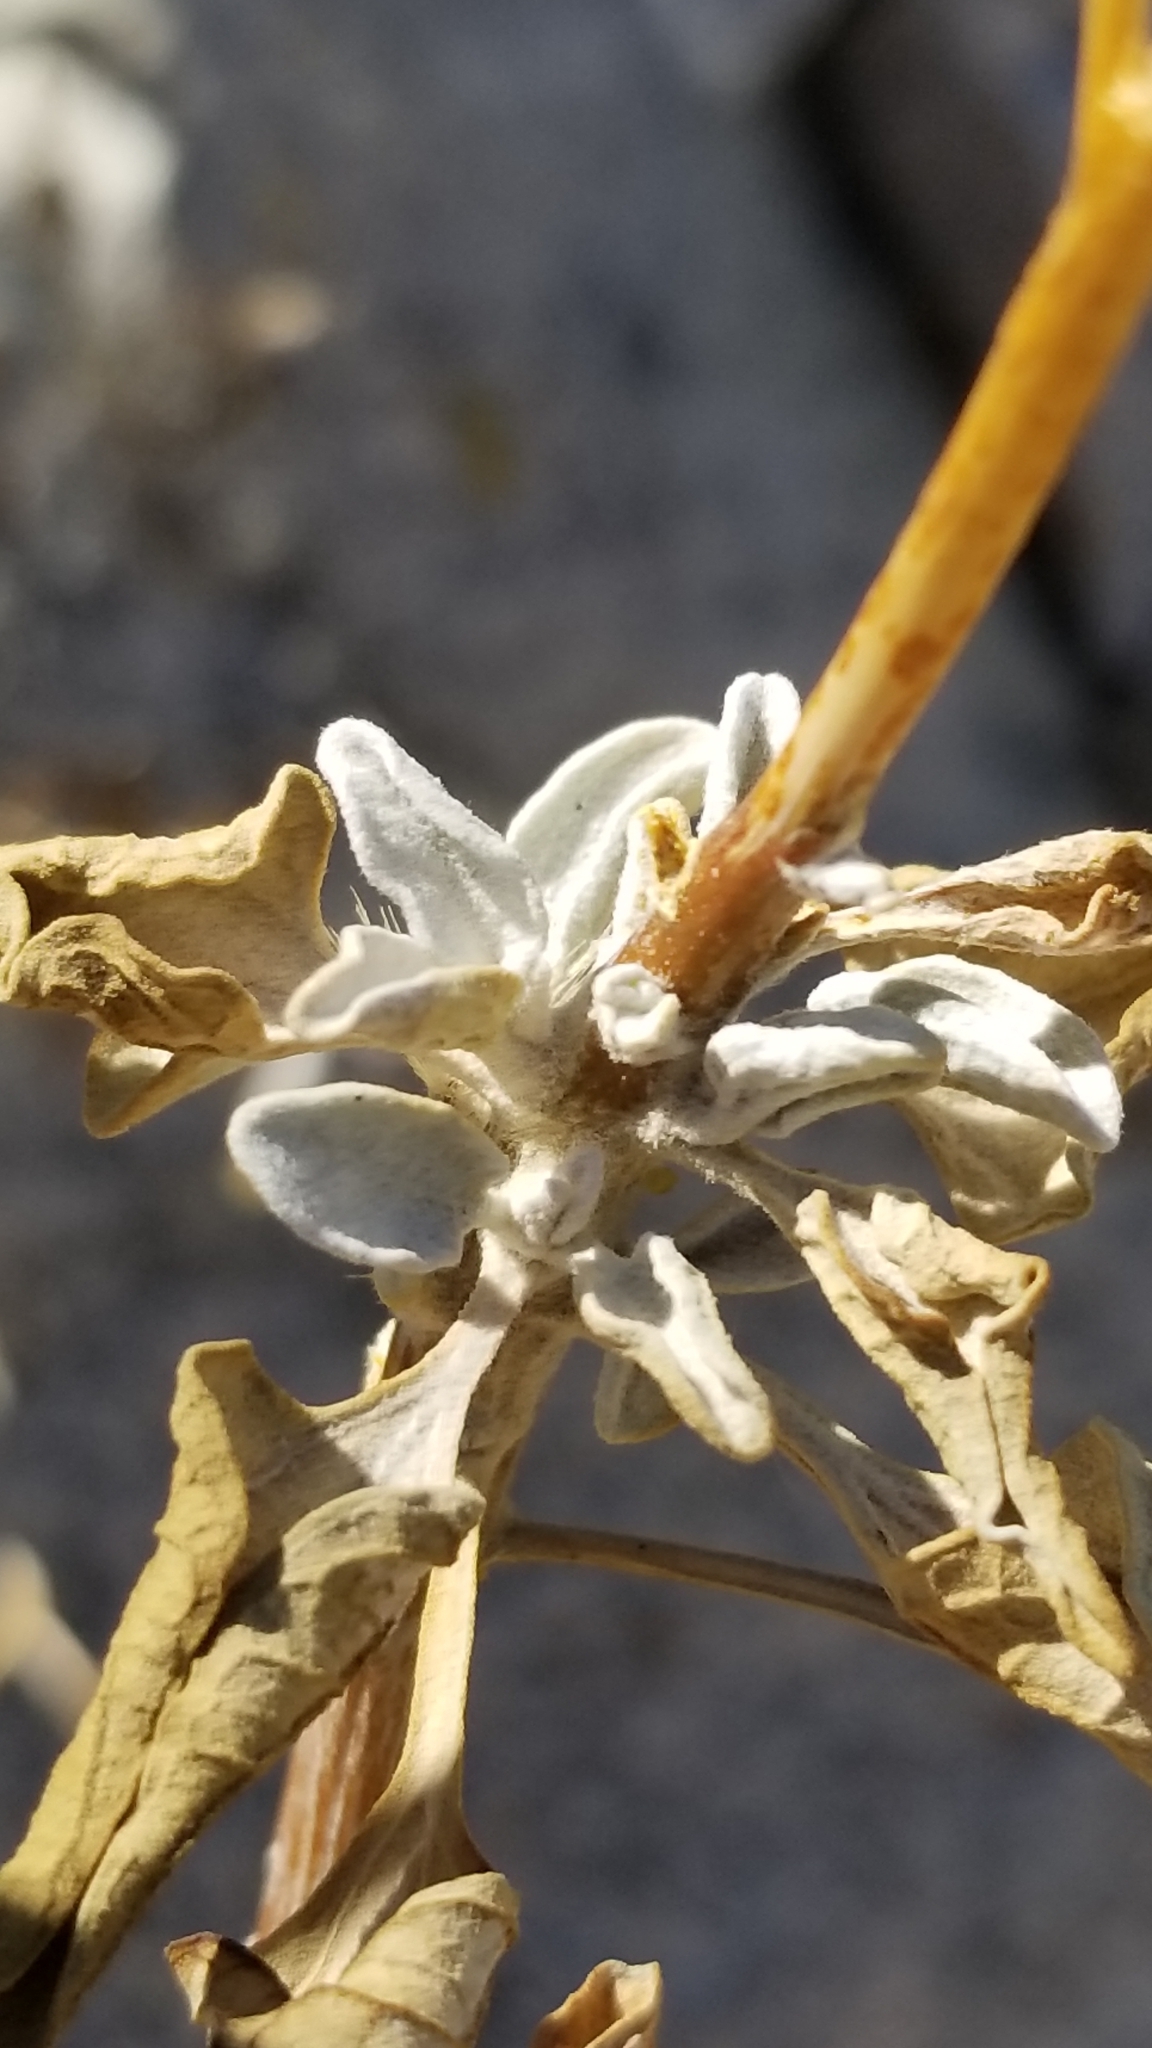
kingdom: Plantae
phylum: Tracheophyta
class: Magnoliopsida
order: Asterales
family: Asteraceae
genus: Encelia
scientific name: Encelia farinosa
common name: Brittlebush
